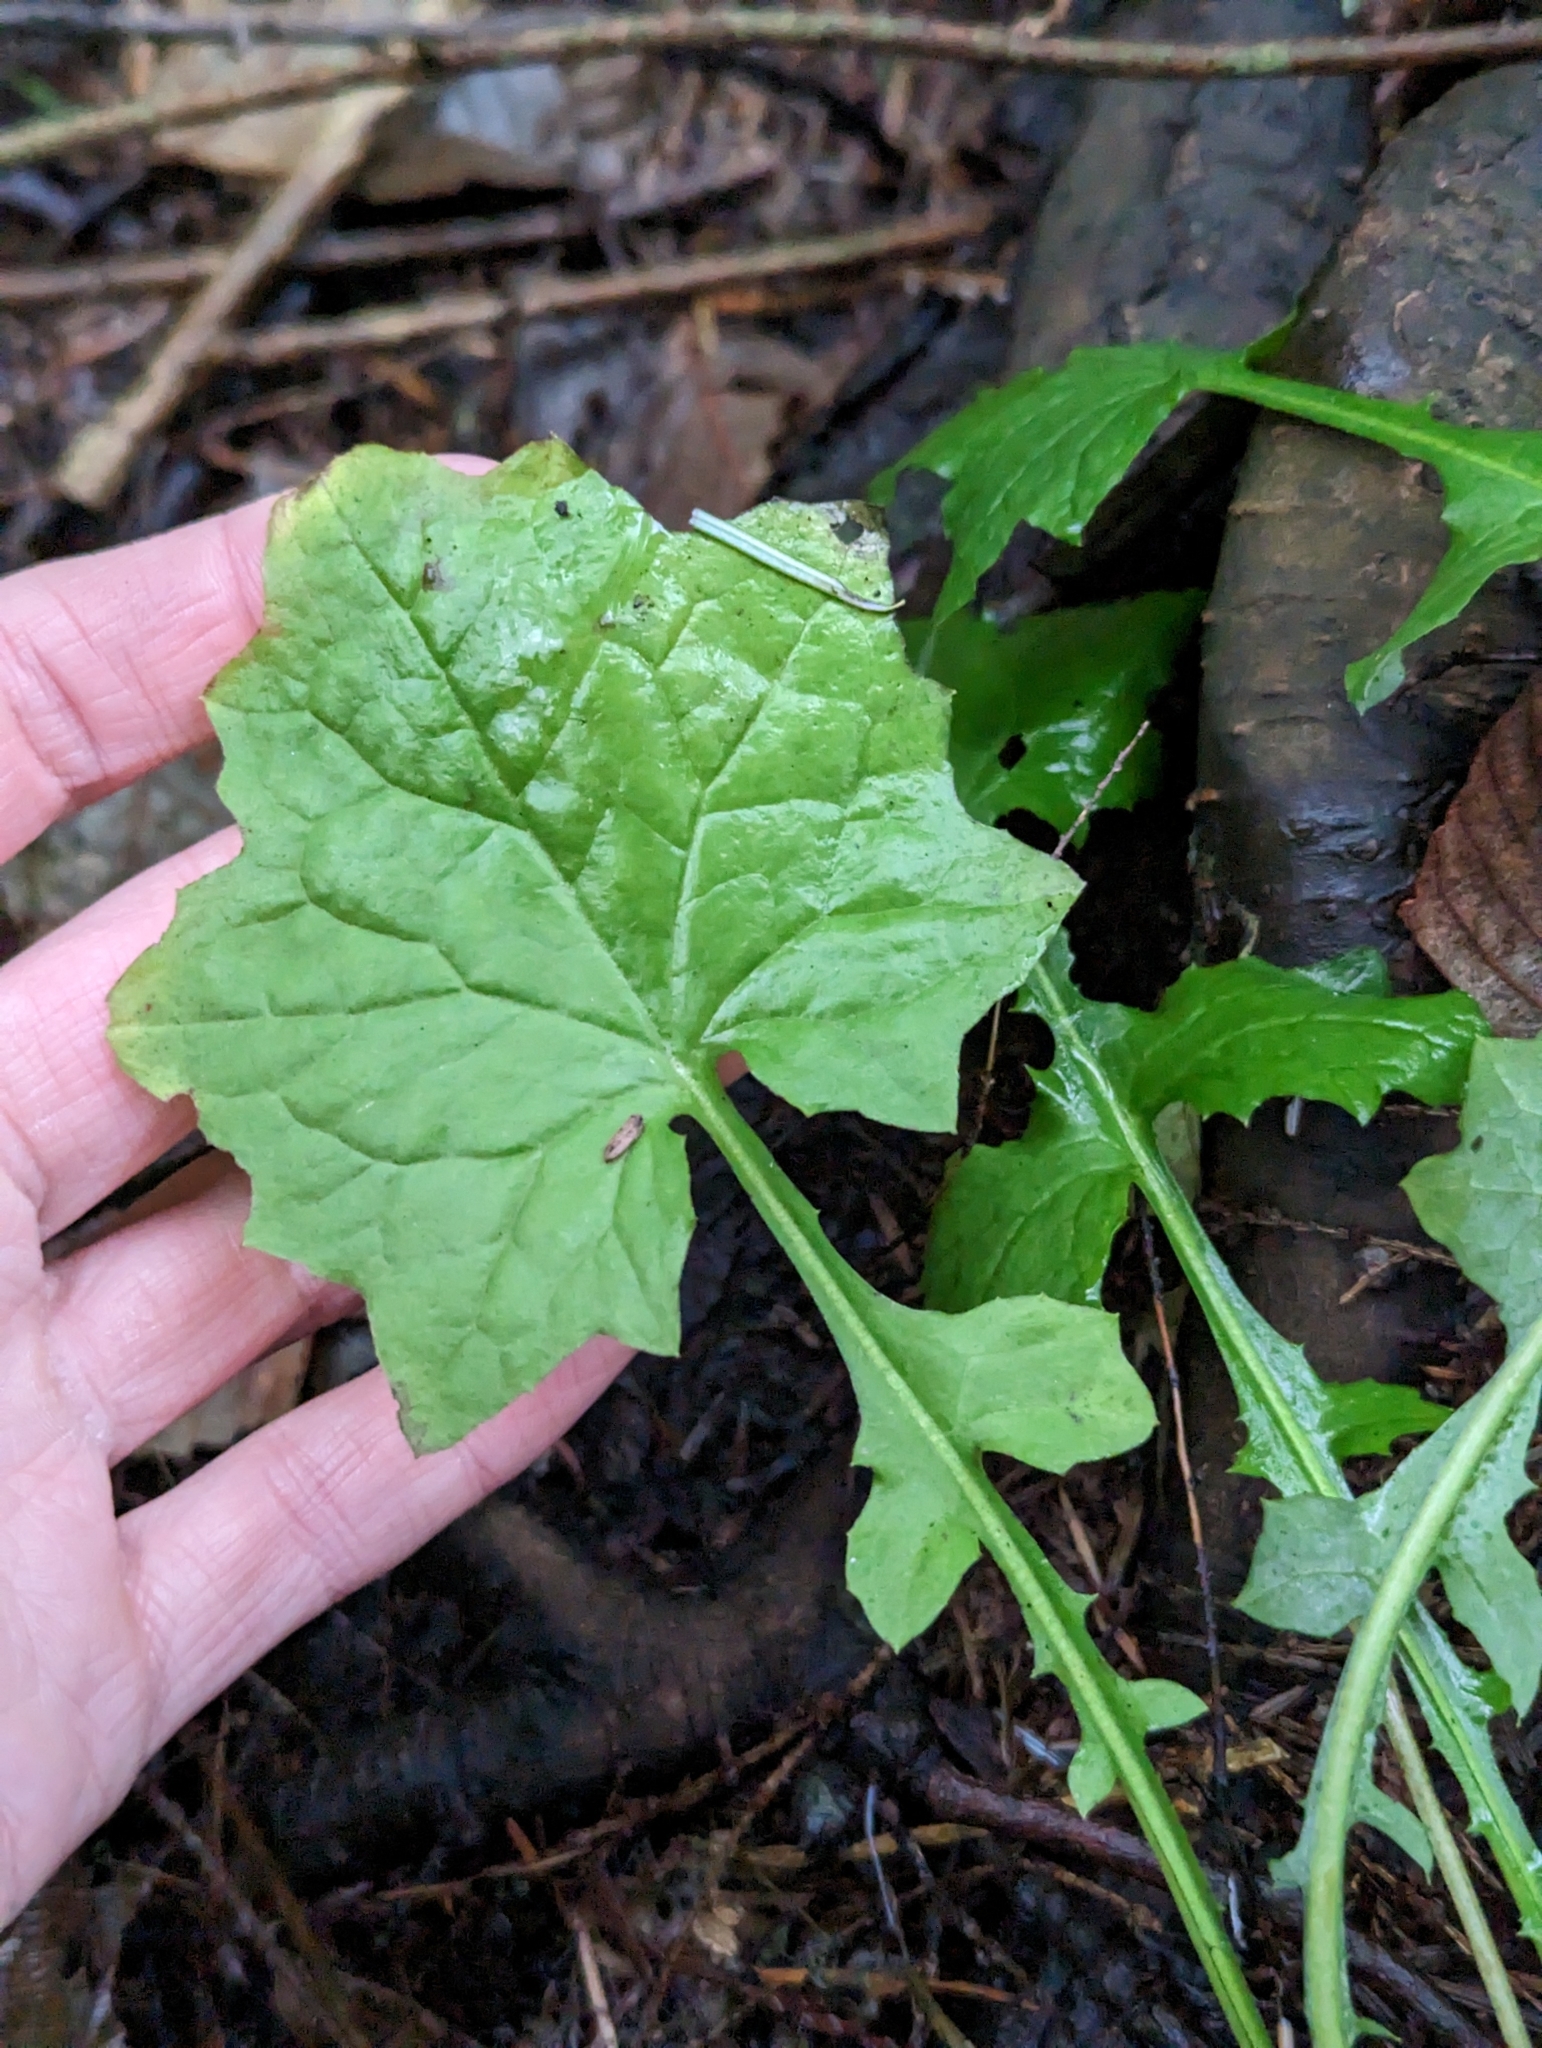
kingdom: Plantae
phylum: Tracheophyta
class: Magnoliopsida
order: Asterales
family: Asteraceae
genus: Mycelis
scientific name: Mycelis muralis
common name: Wall lettuce
